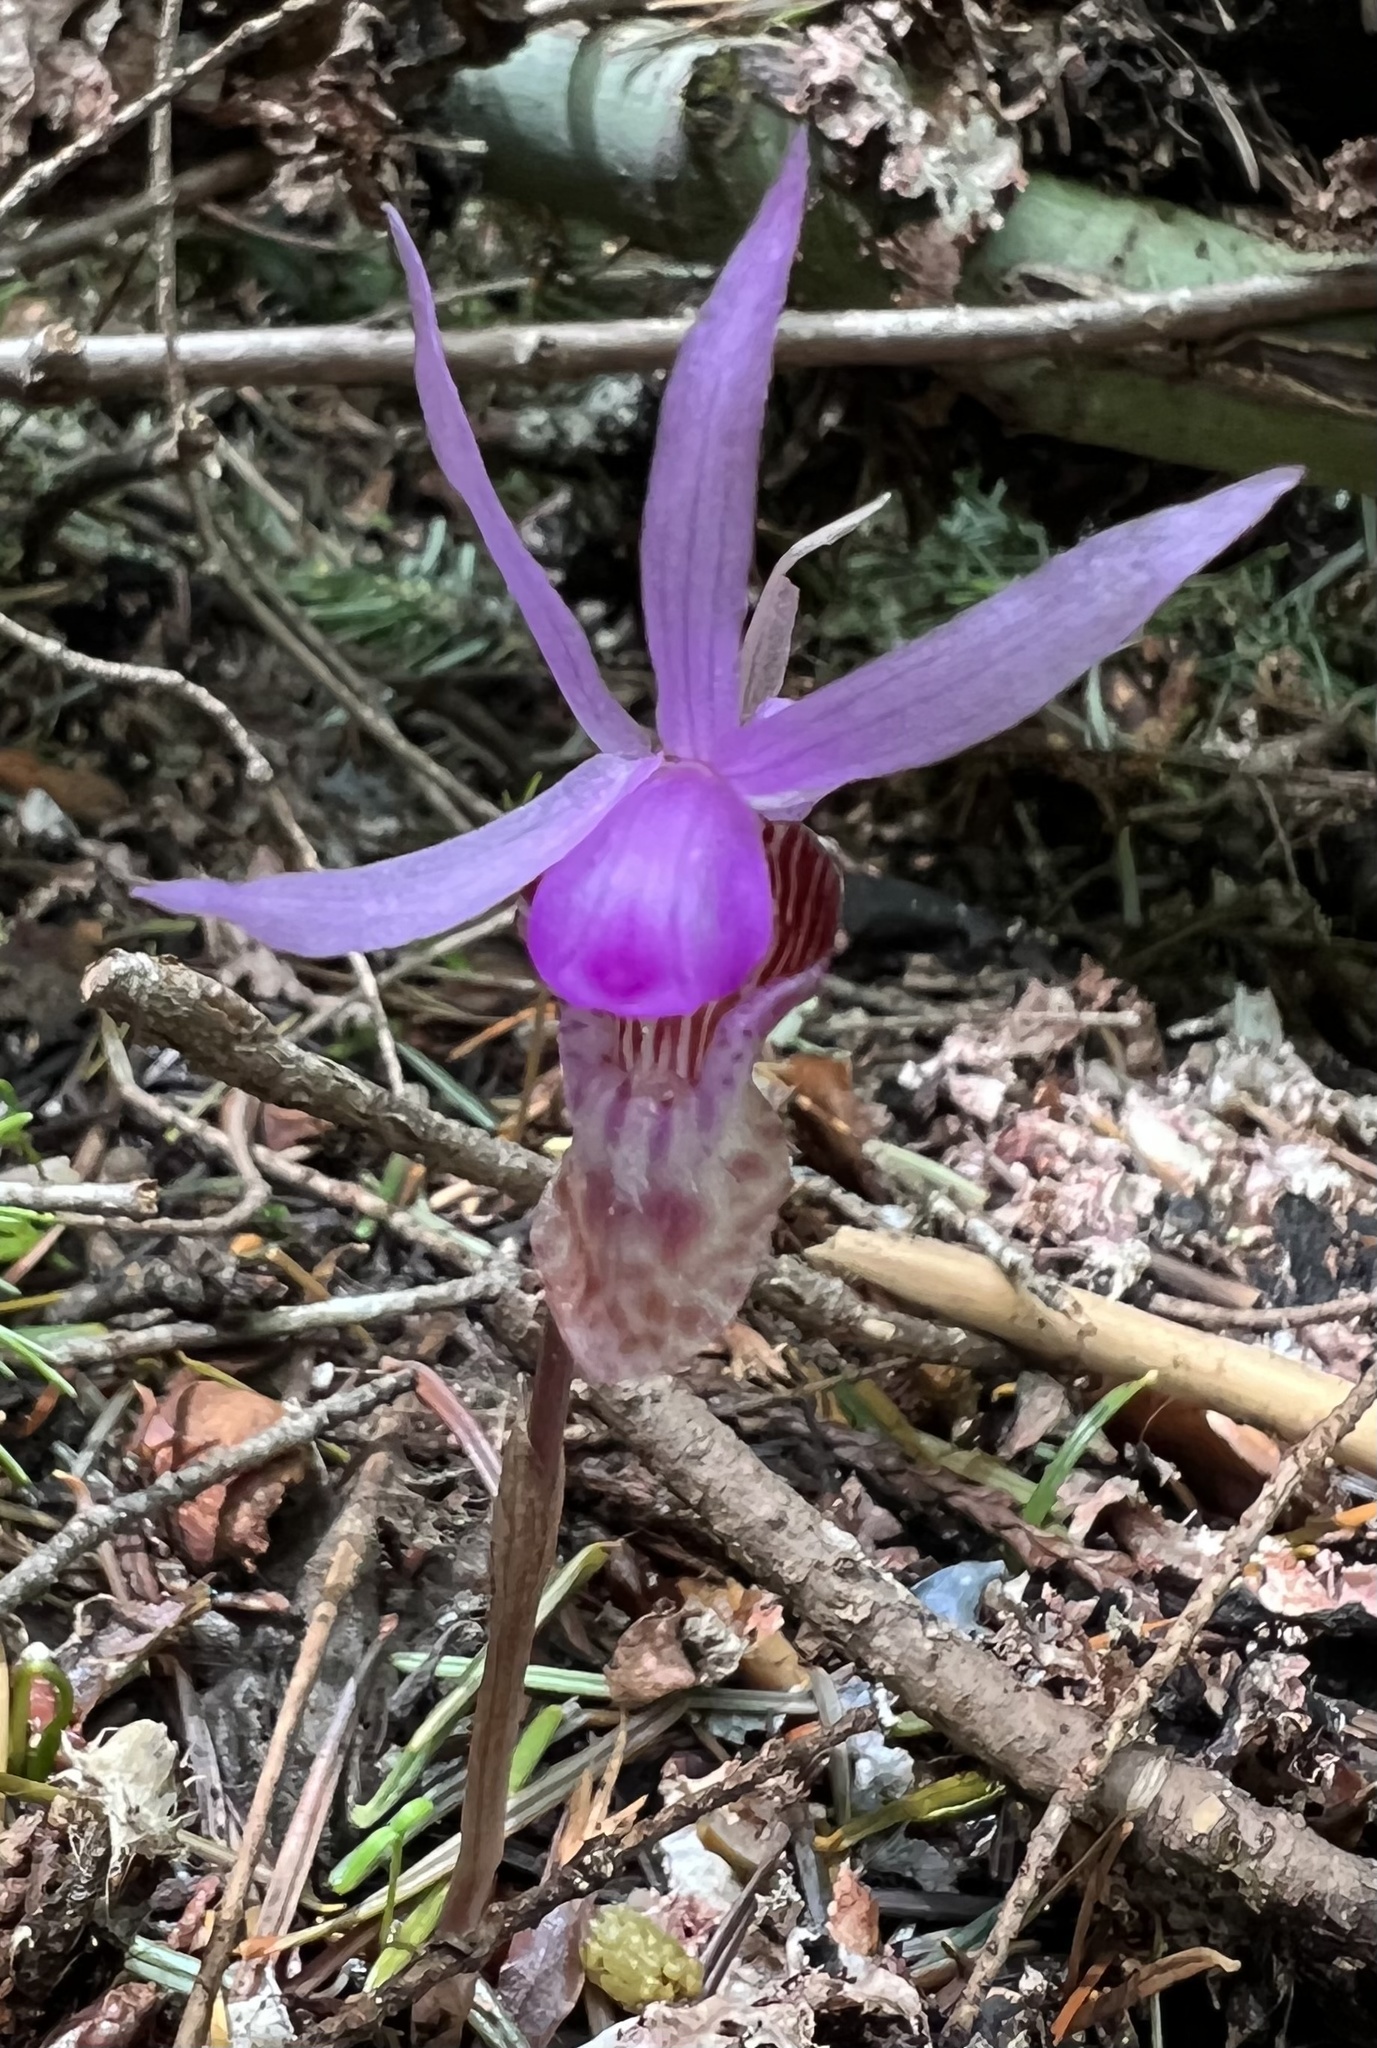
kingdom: Plantae
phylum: Tracheophyta
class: Liliopsida
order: Asparagales
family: Orchidaceae
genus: Calypso
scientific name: Calypso bulbosa
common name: Calypso
